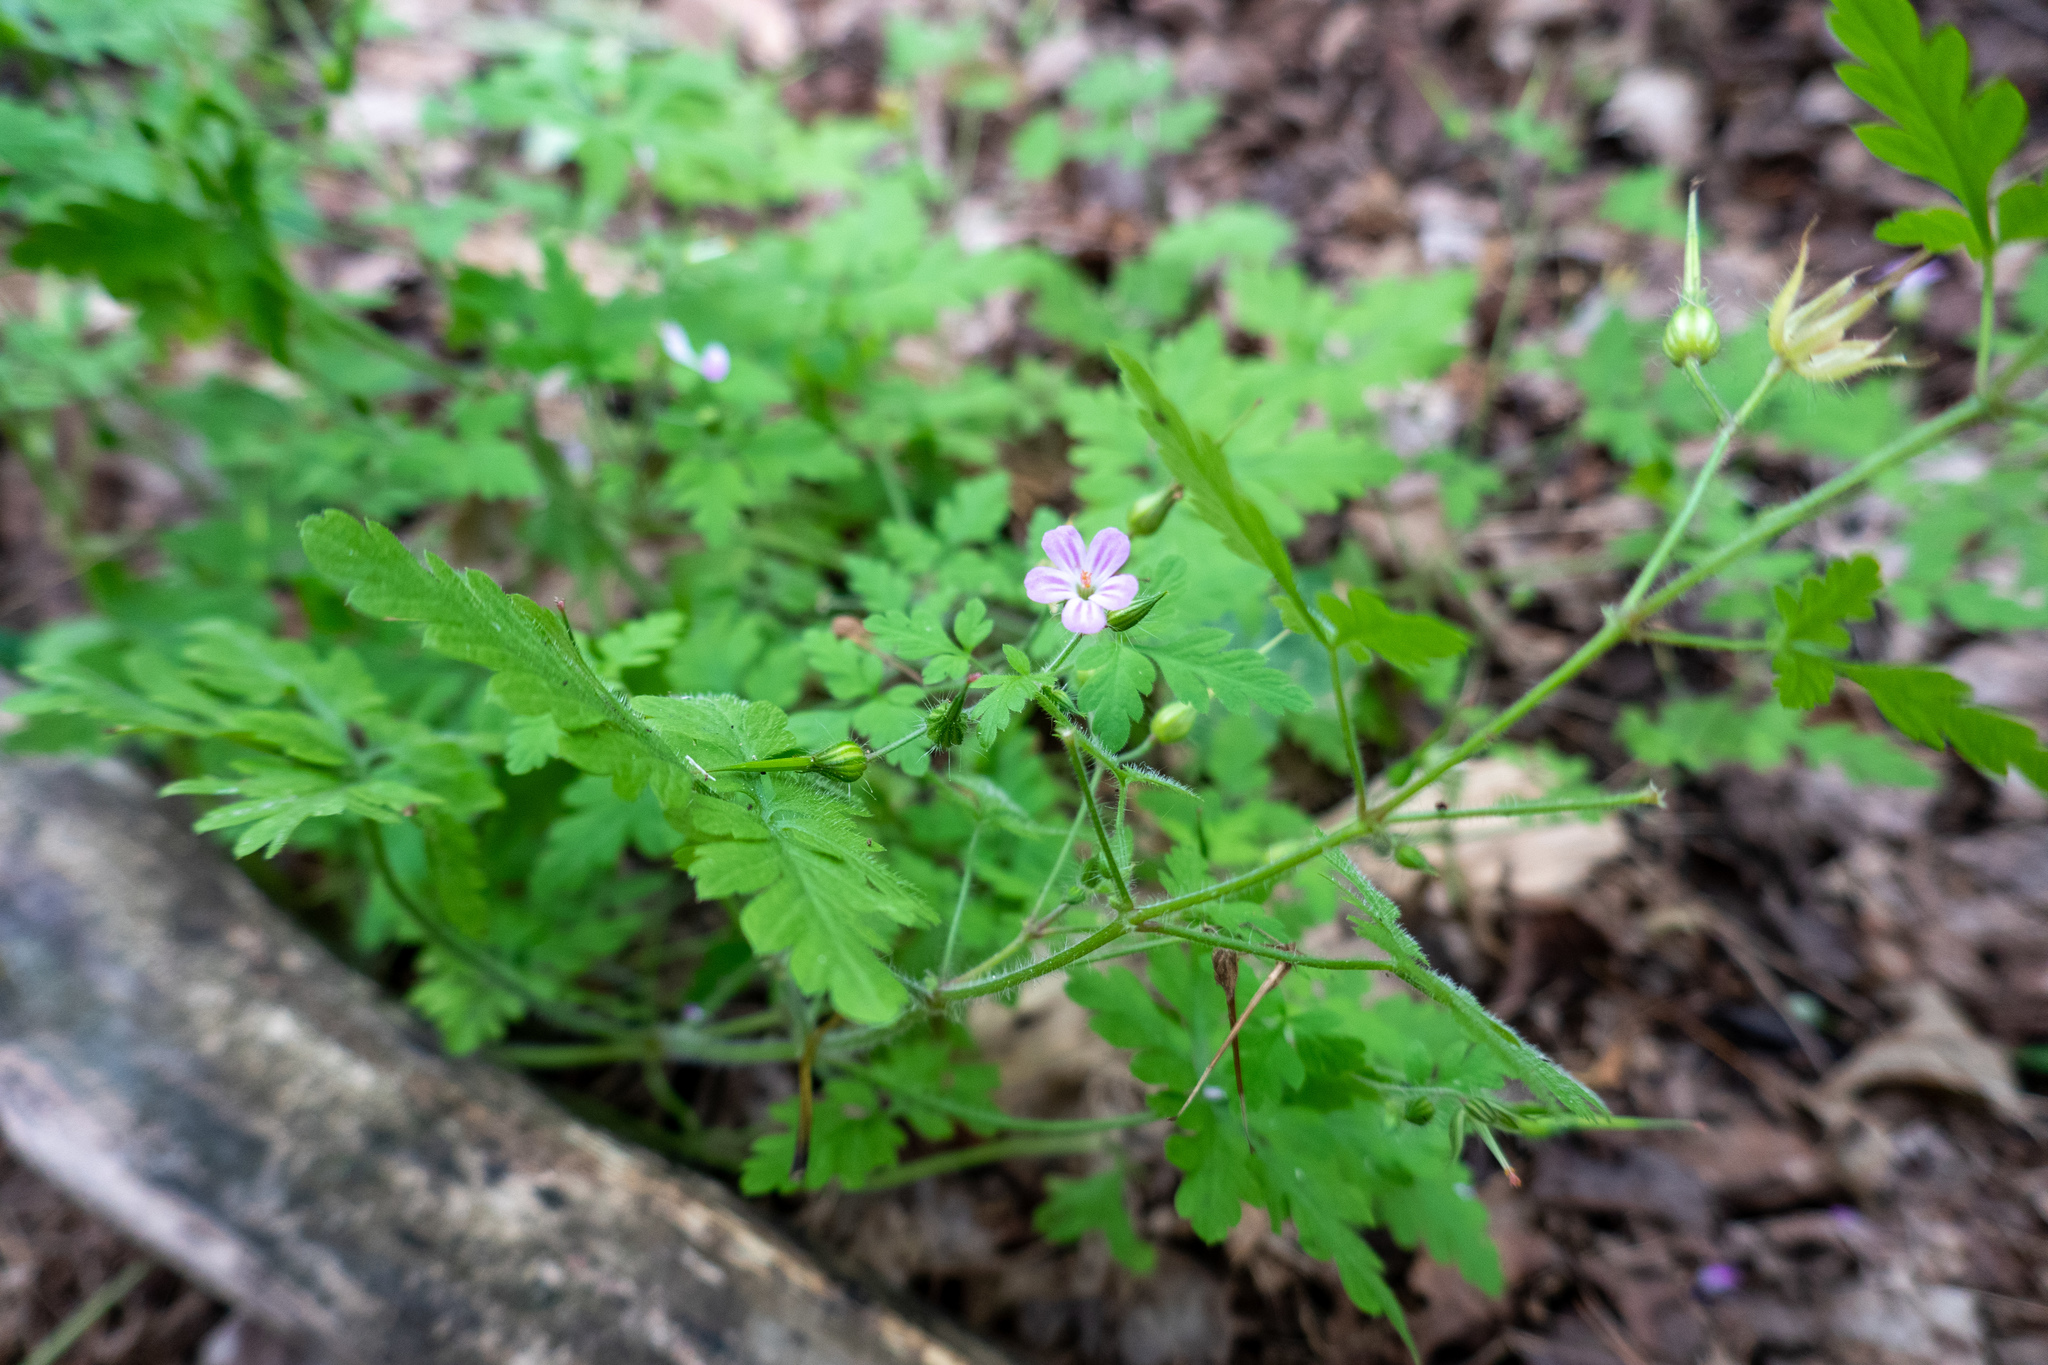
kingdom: Plantae
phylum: Tracheophyta
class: Magnoliopsida
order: Geraniales
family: Geraniaceae
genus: Geranium
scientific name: Geranium robertianum
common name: Herb-robert
